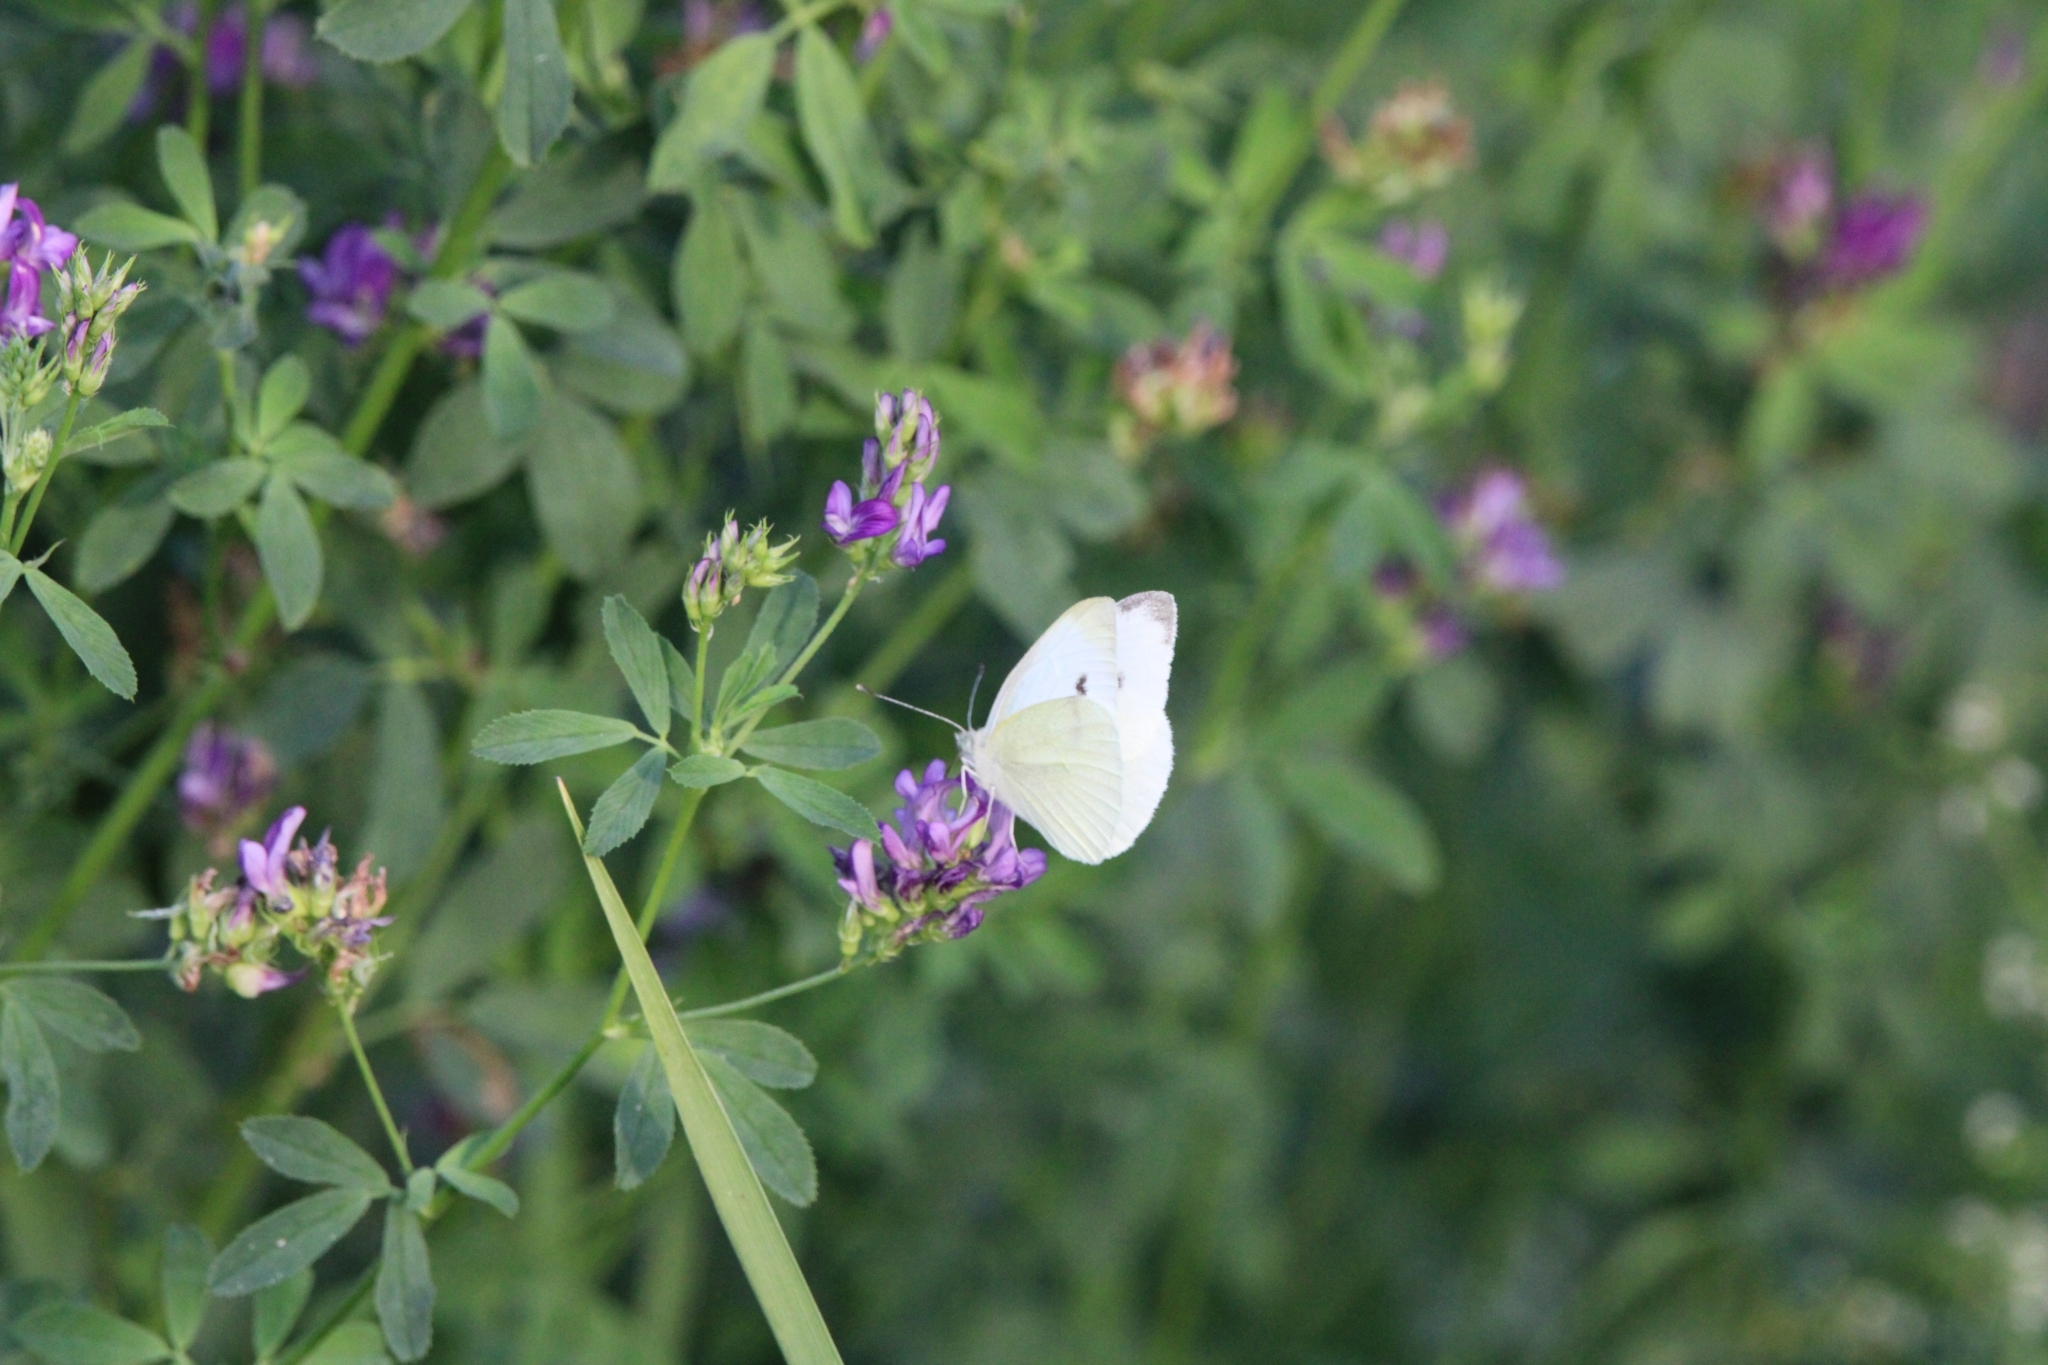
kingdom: Animalia
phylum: Arthropoda
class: Insecta
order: Lepidoptera
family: Pieridae
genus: Pieris
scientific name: Pieris rapae
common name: Small white
